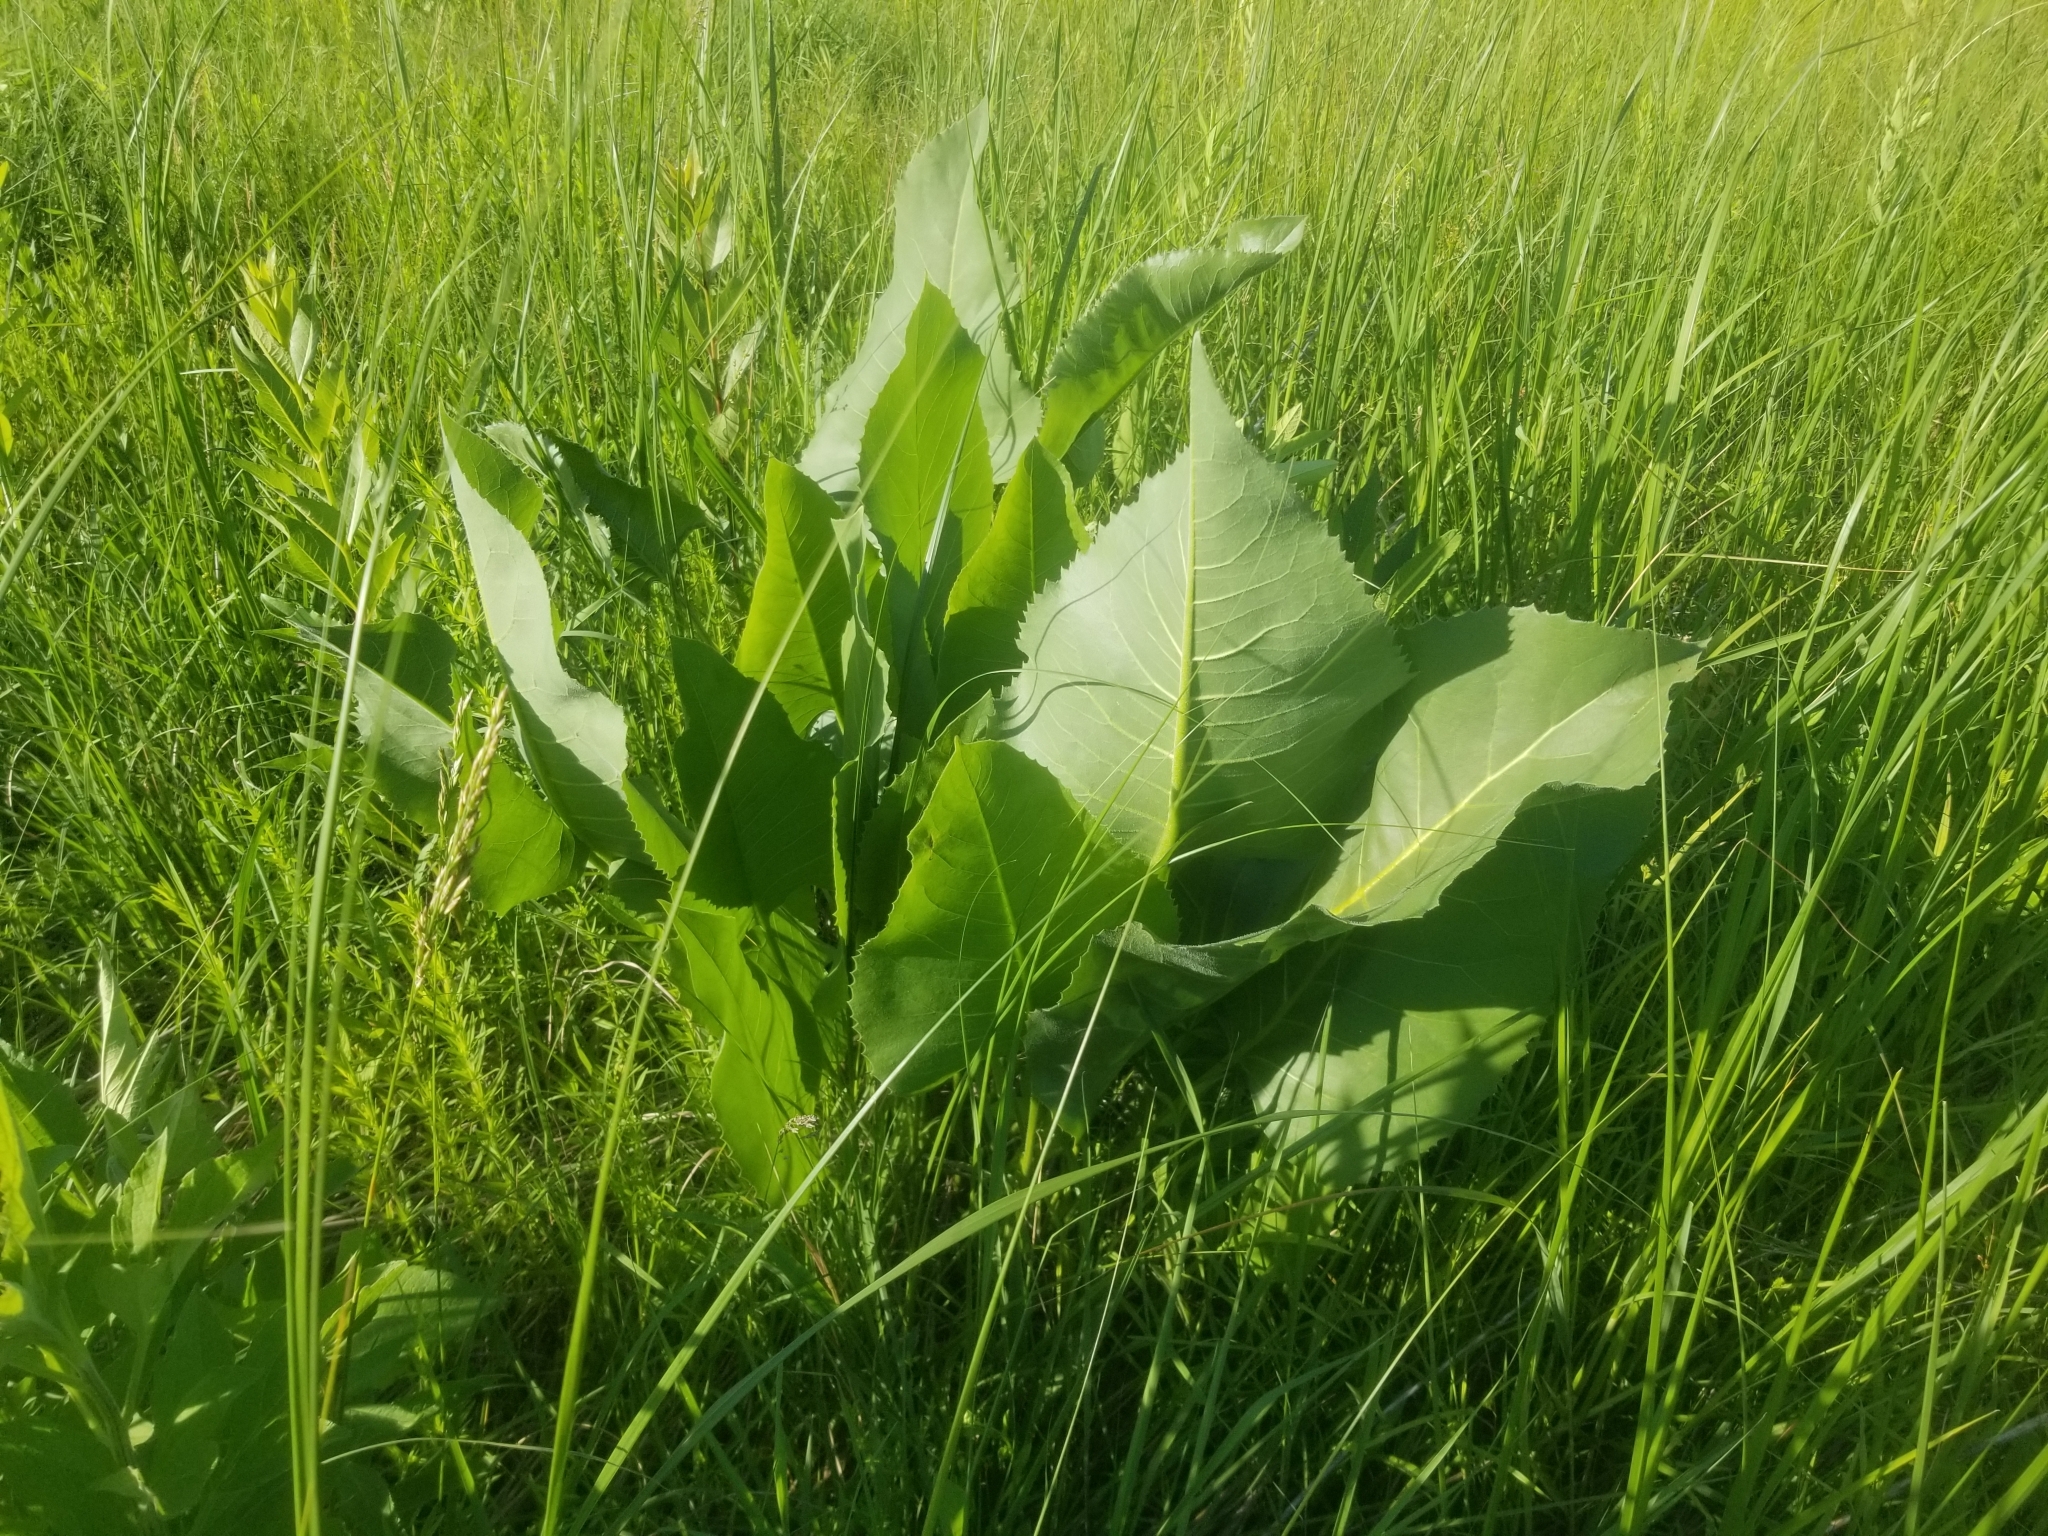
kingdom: Plantae
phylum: Tracheophyta
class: Magnoliopsida
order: Asterales
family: Asteraceae
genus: Silphium
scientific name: Silphium terebinthinaceum
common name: Basal-leaf rosinweed
